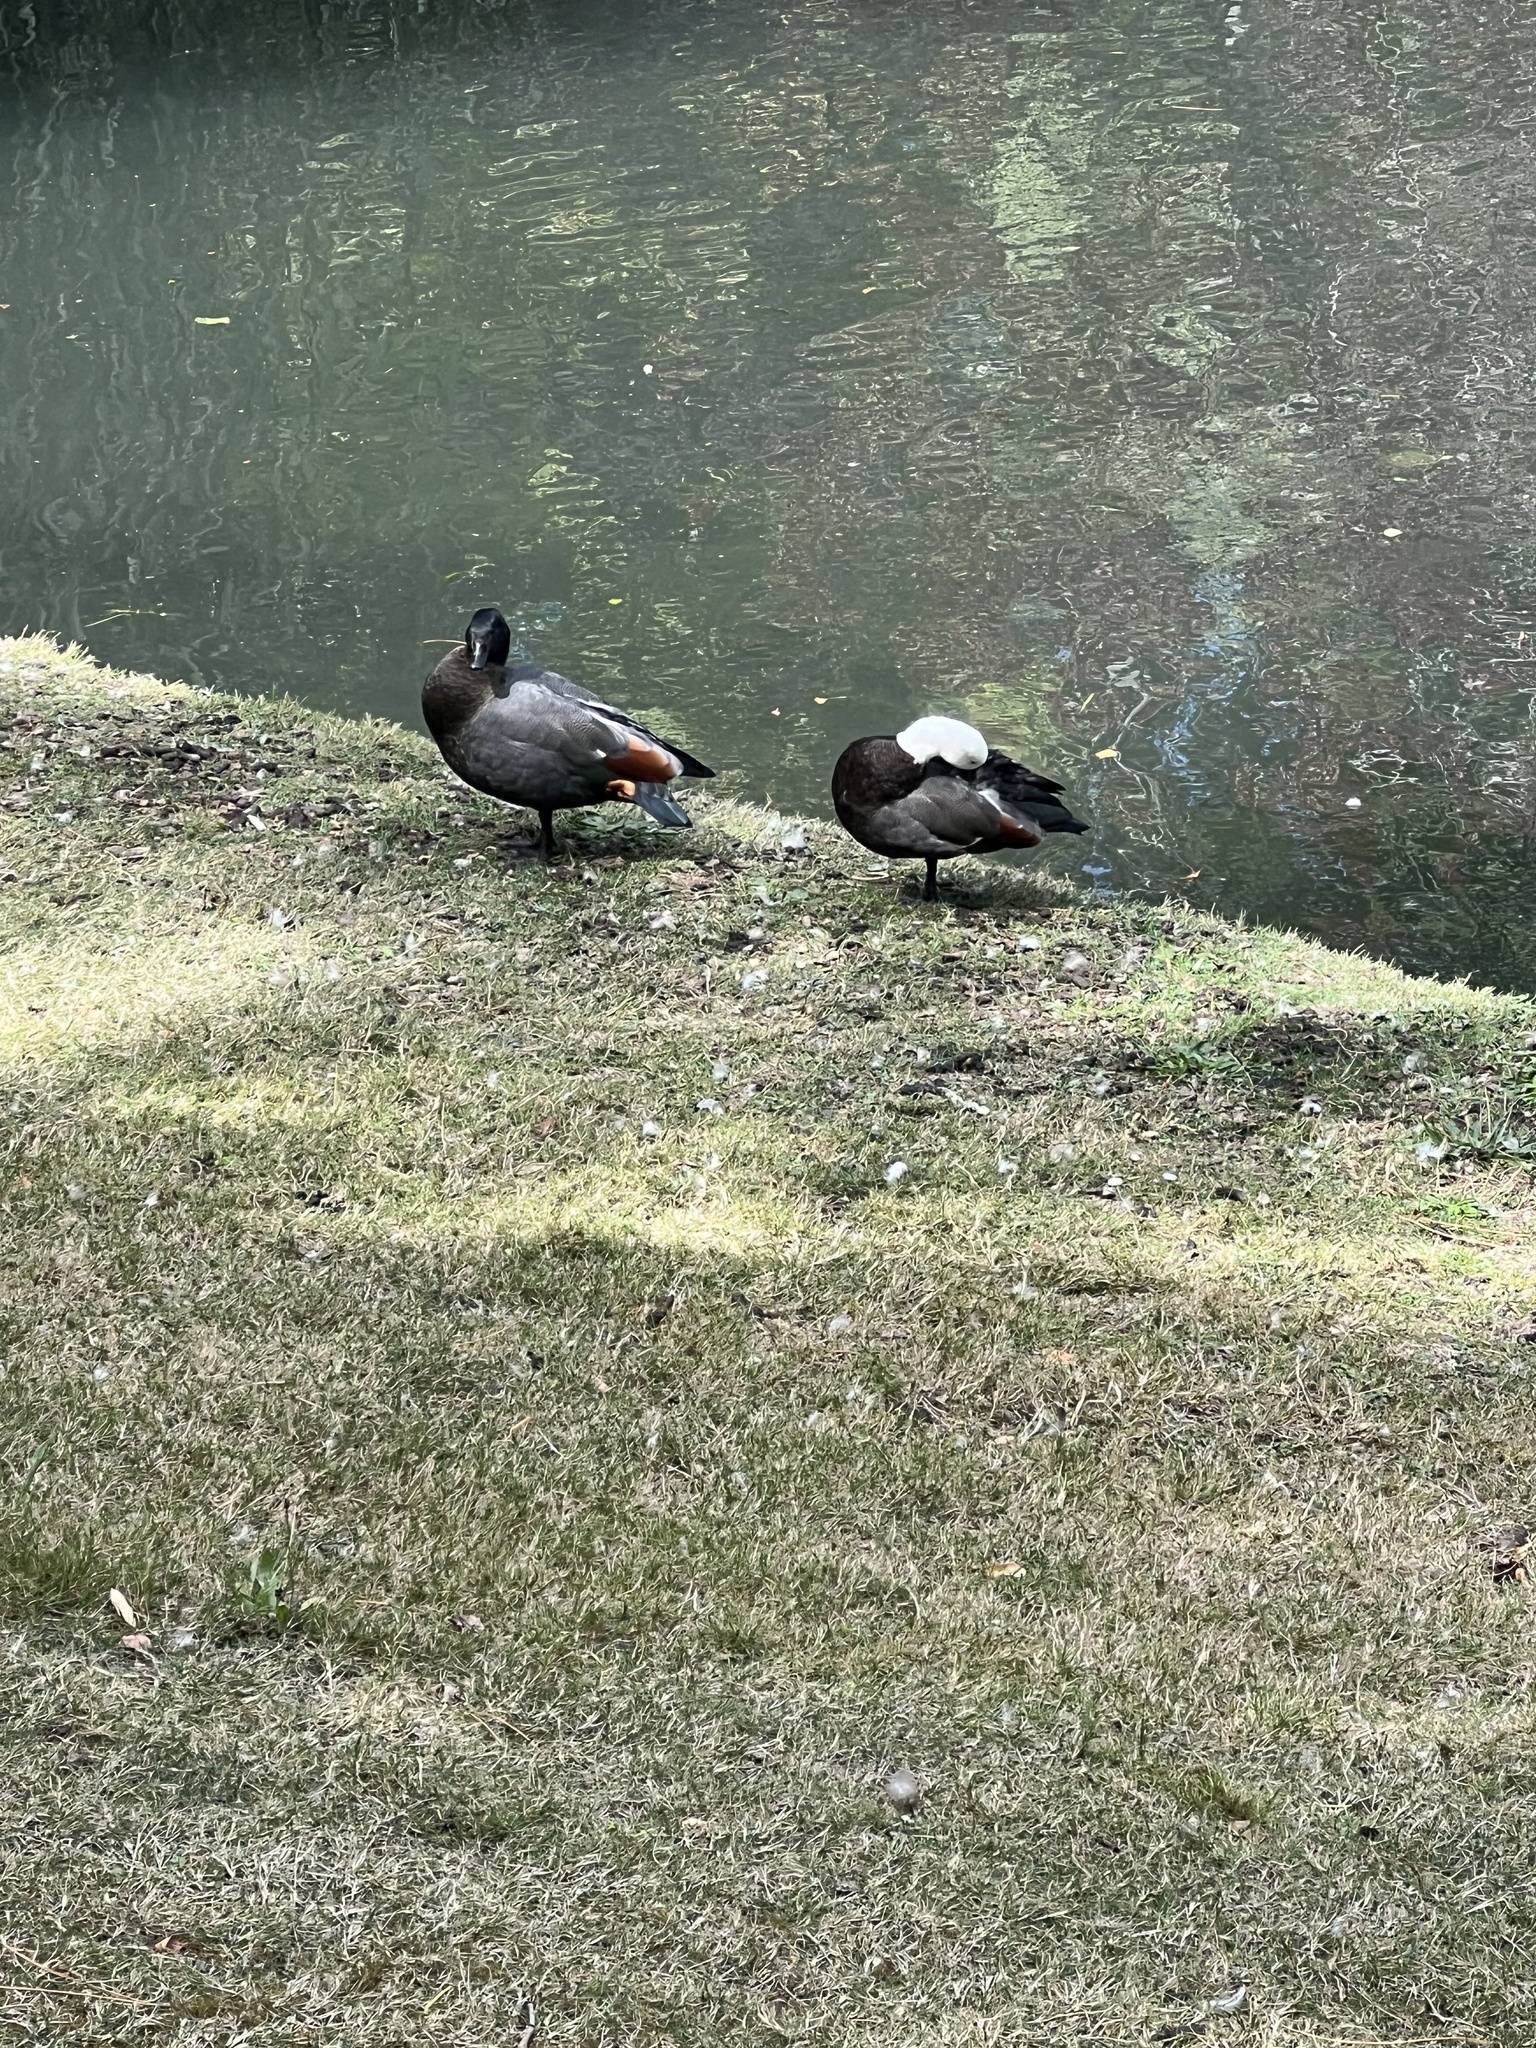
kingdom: Animalia
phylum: Chordata
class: Aves
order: Anseriformes
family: Anatidae
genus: Tadorna
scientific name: Tadorna variegata
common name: Paradise shelduck
